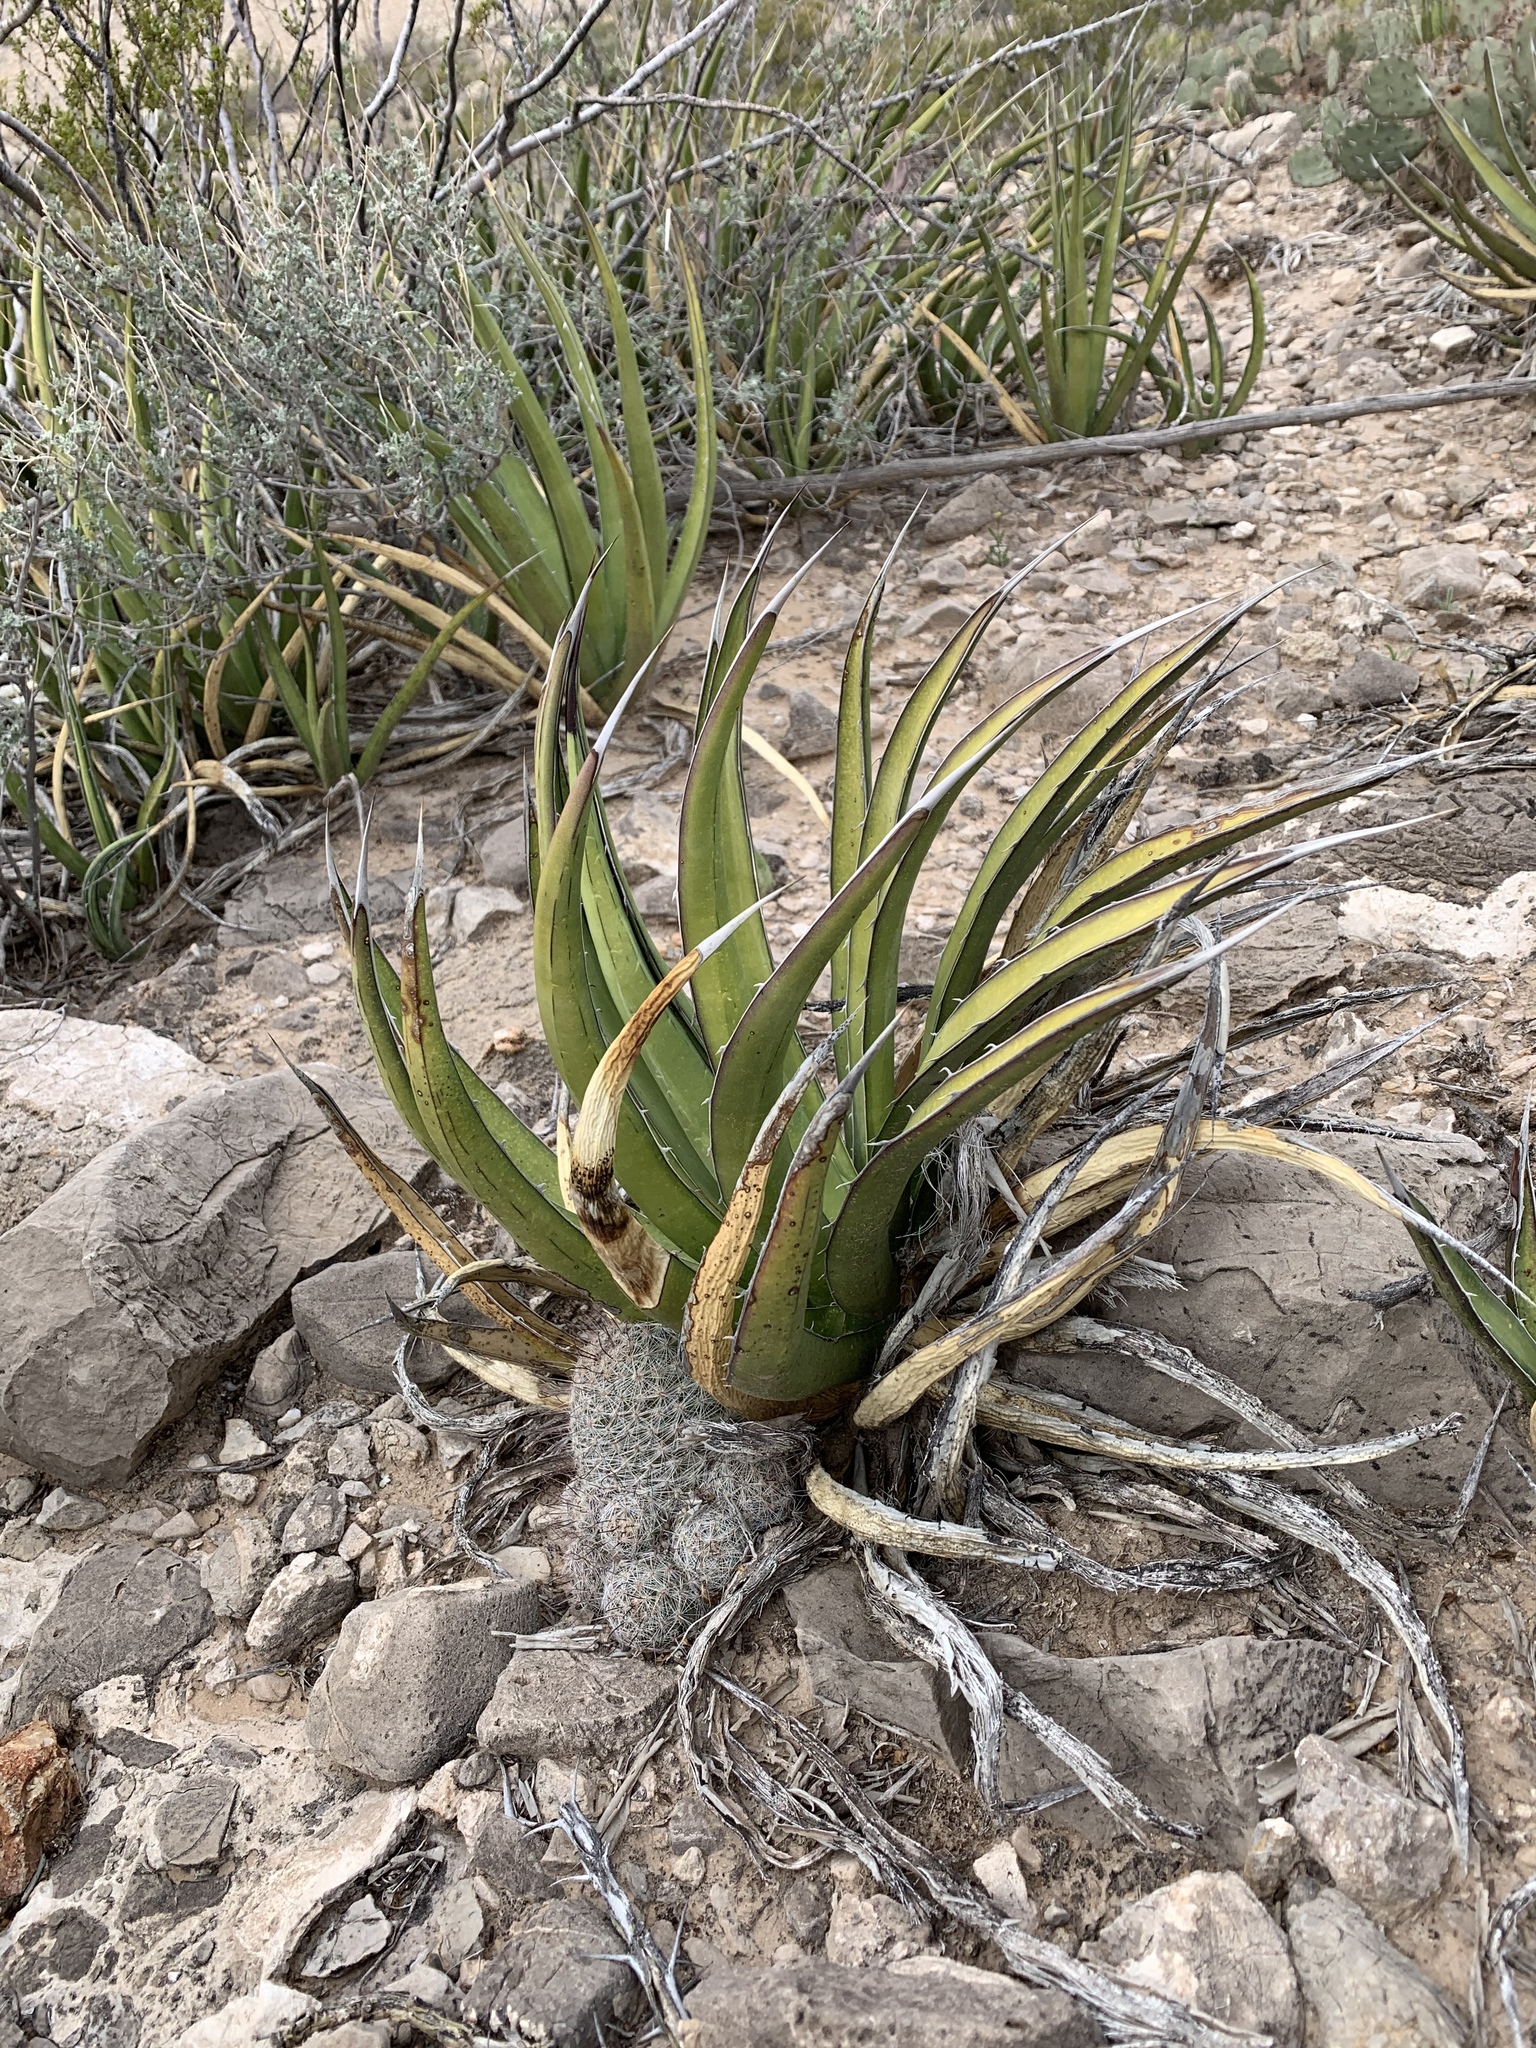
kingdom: Plantae
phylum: Tracheophyta
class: Magnoliopsida
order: Caryophyllales
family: Cactaceae
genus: Cochemiea
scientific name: Cochemiea grahamii
